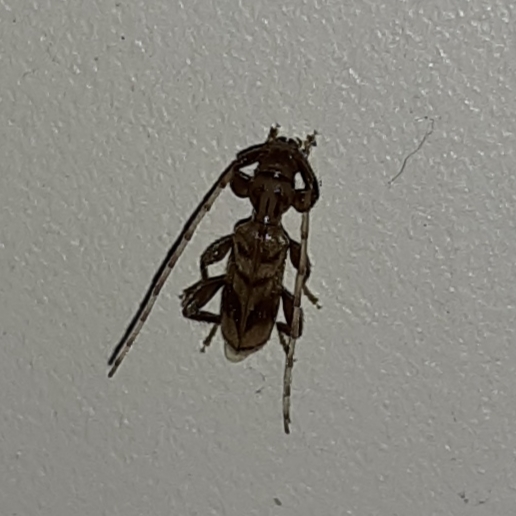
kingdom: Animalia
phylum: Arthropoda
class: Insecta
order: Coleoptera
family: Cerambycidae
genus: Obrium
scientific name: Obrium maculatum
